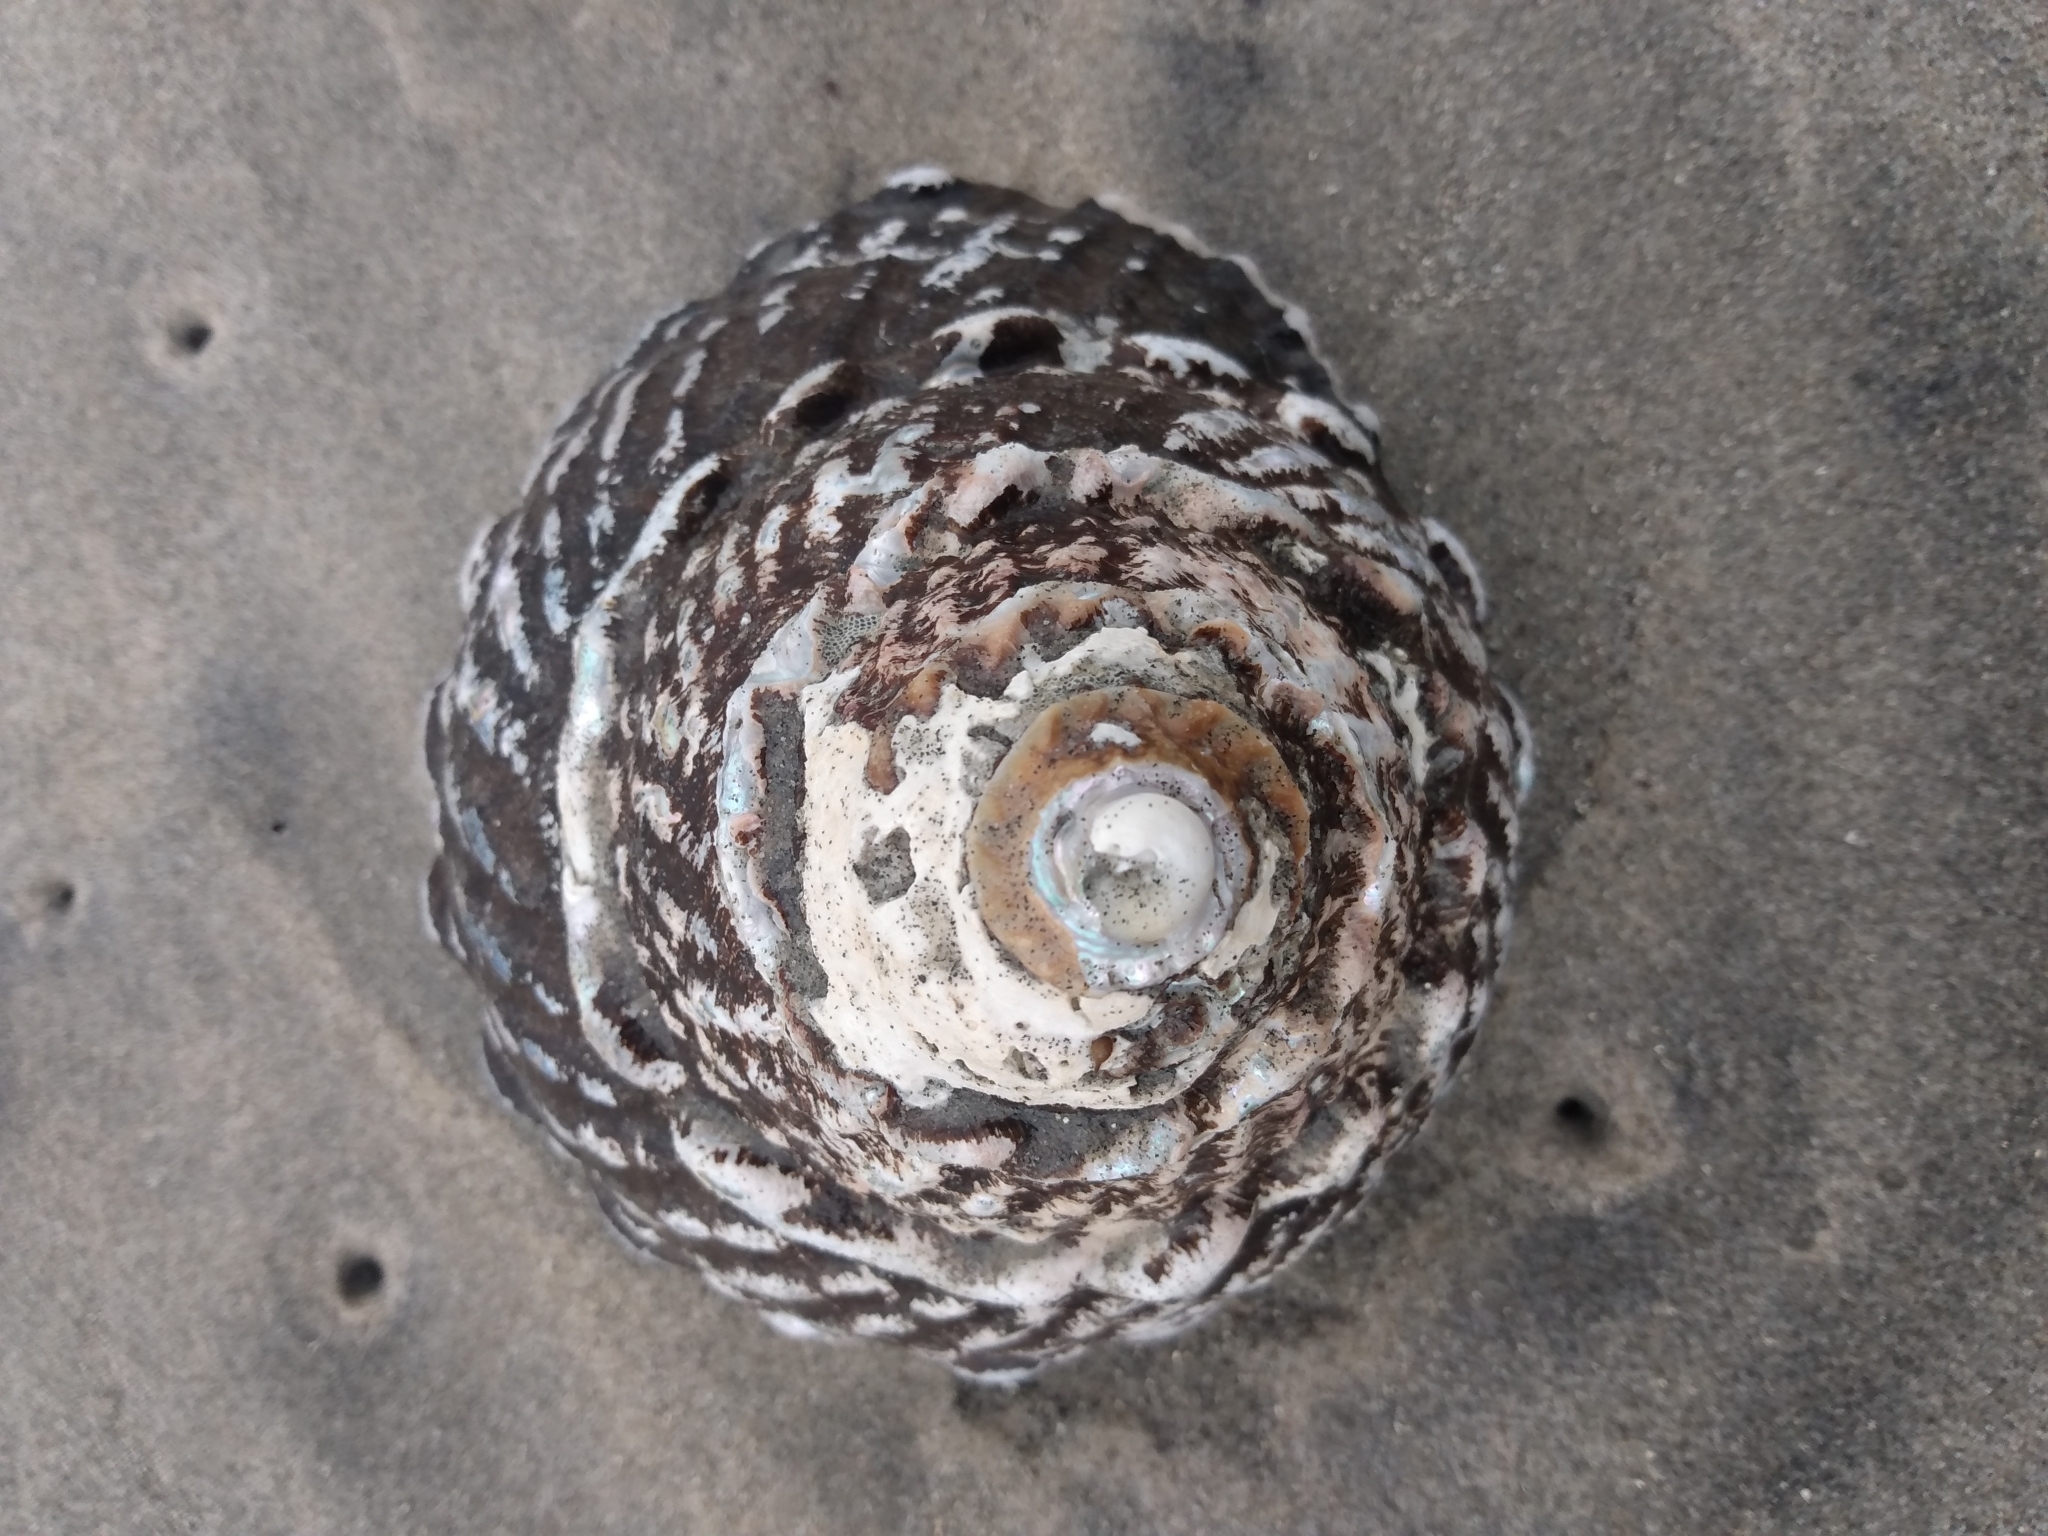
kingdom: Animalia
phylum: Mollusca
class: Gastropoda
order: Trochida
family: Turbinidae
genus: Megastraea
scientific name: Megastraea undosa
